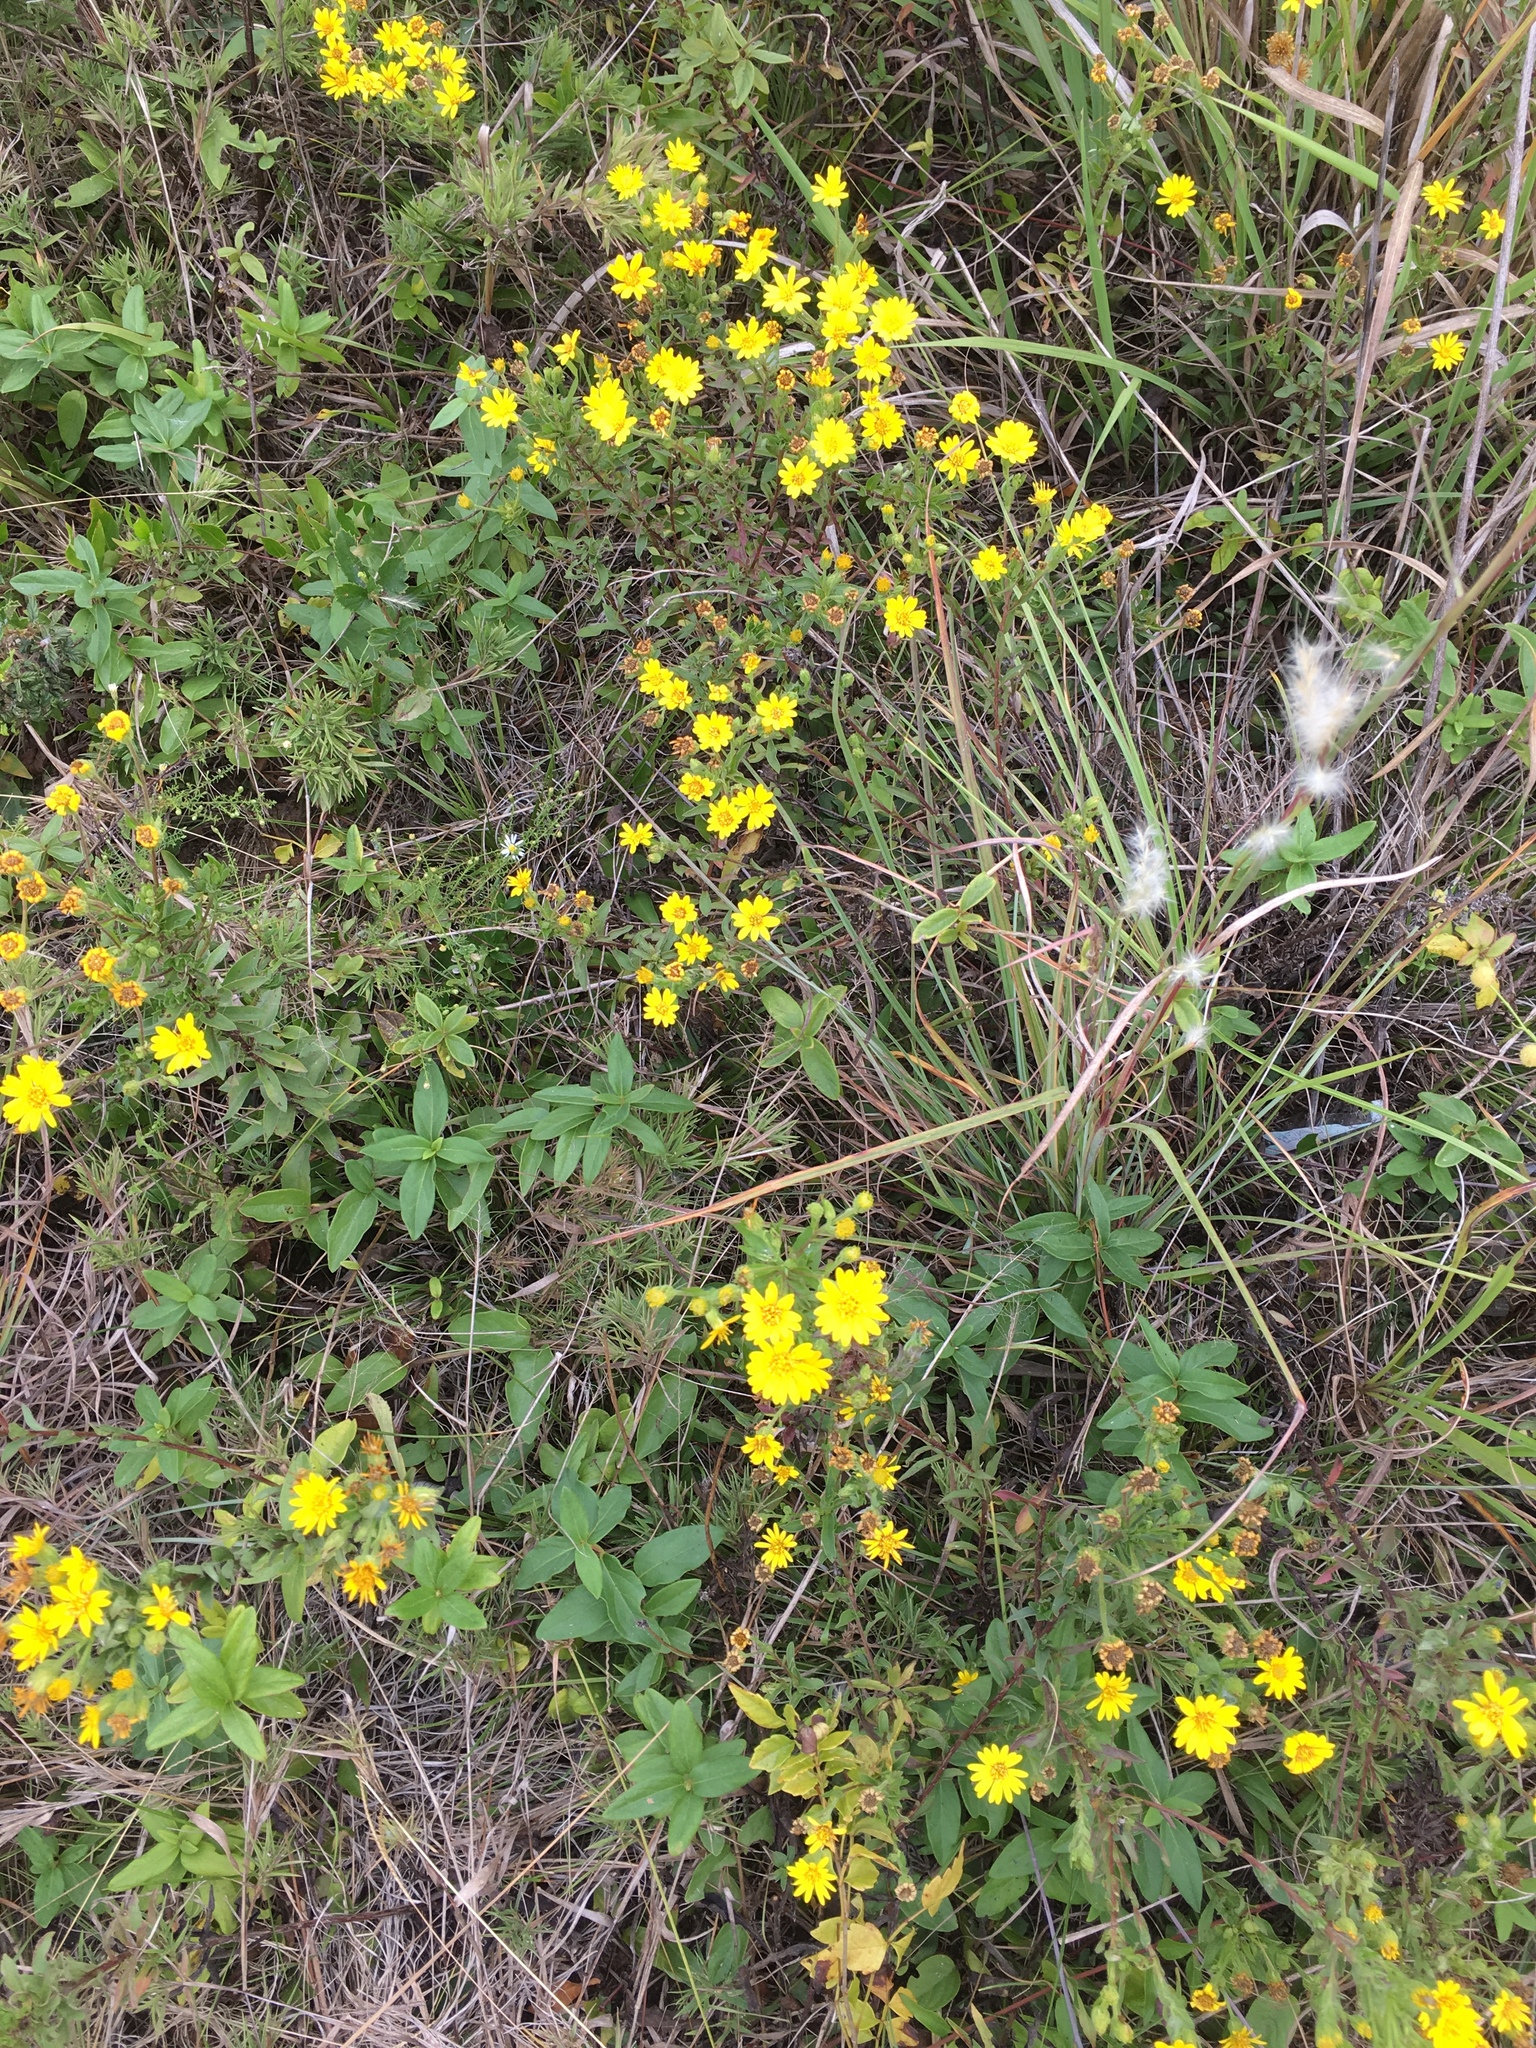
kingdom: Plantae
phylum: Tracheophyta
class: Magnoliopsida
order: Asterales
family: Asteraceae
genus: Chrysopsis
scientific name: Chrysopsis mariana
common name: Maryland golden-aster
